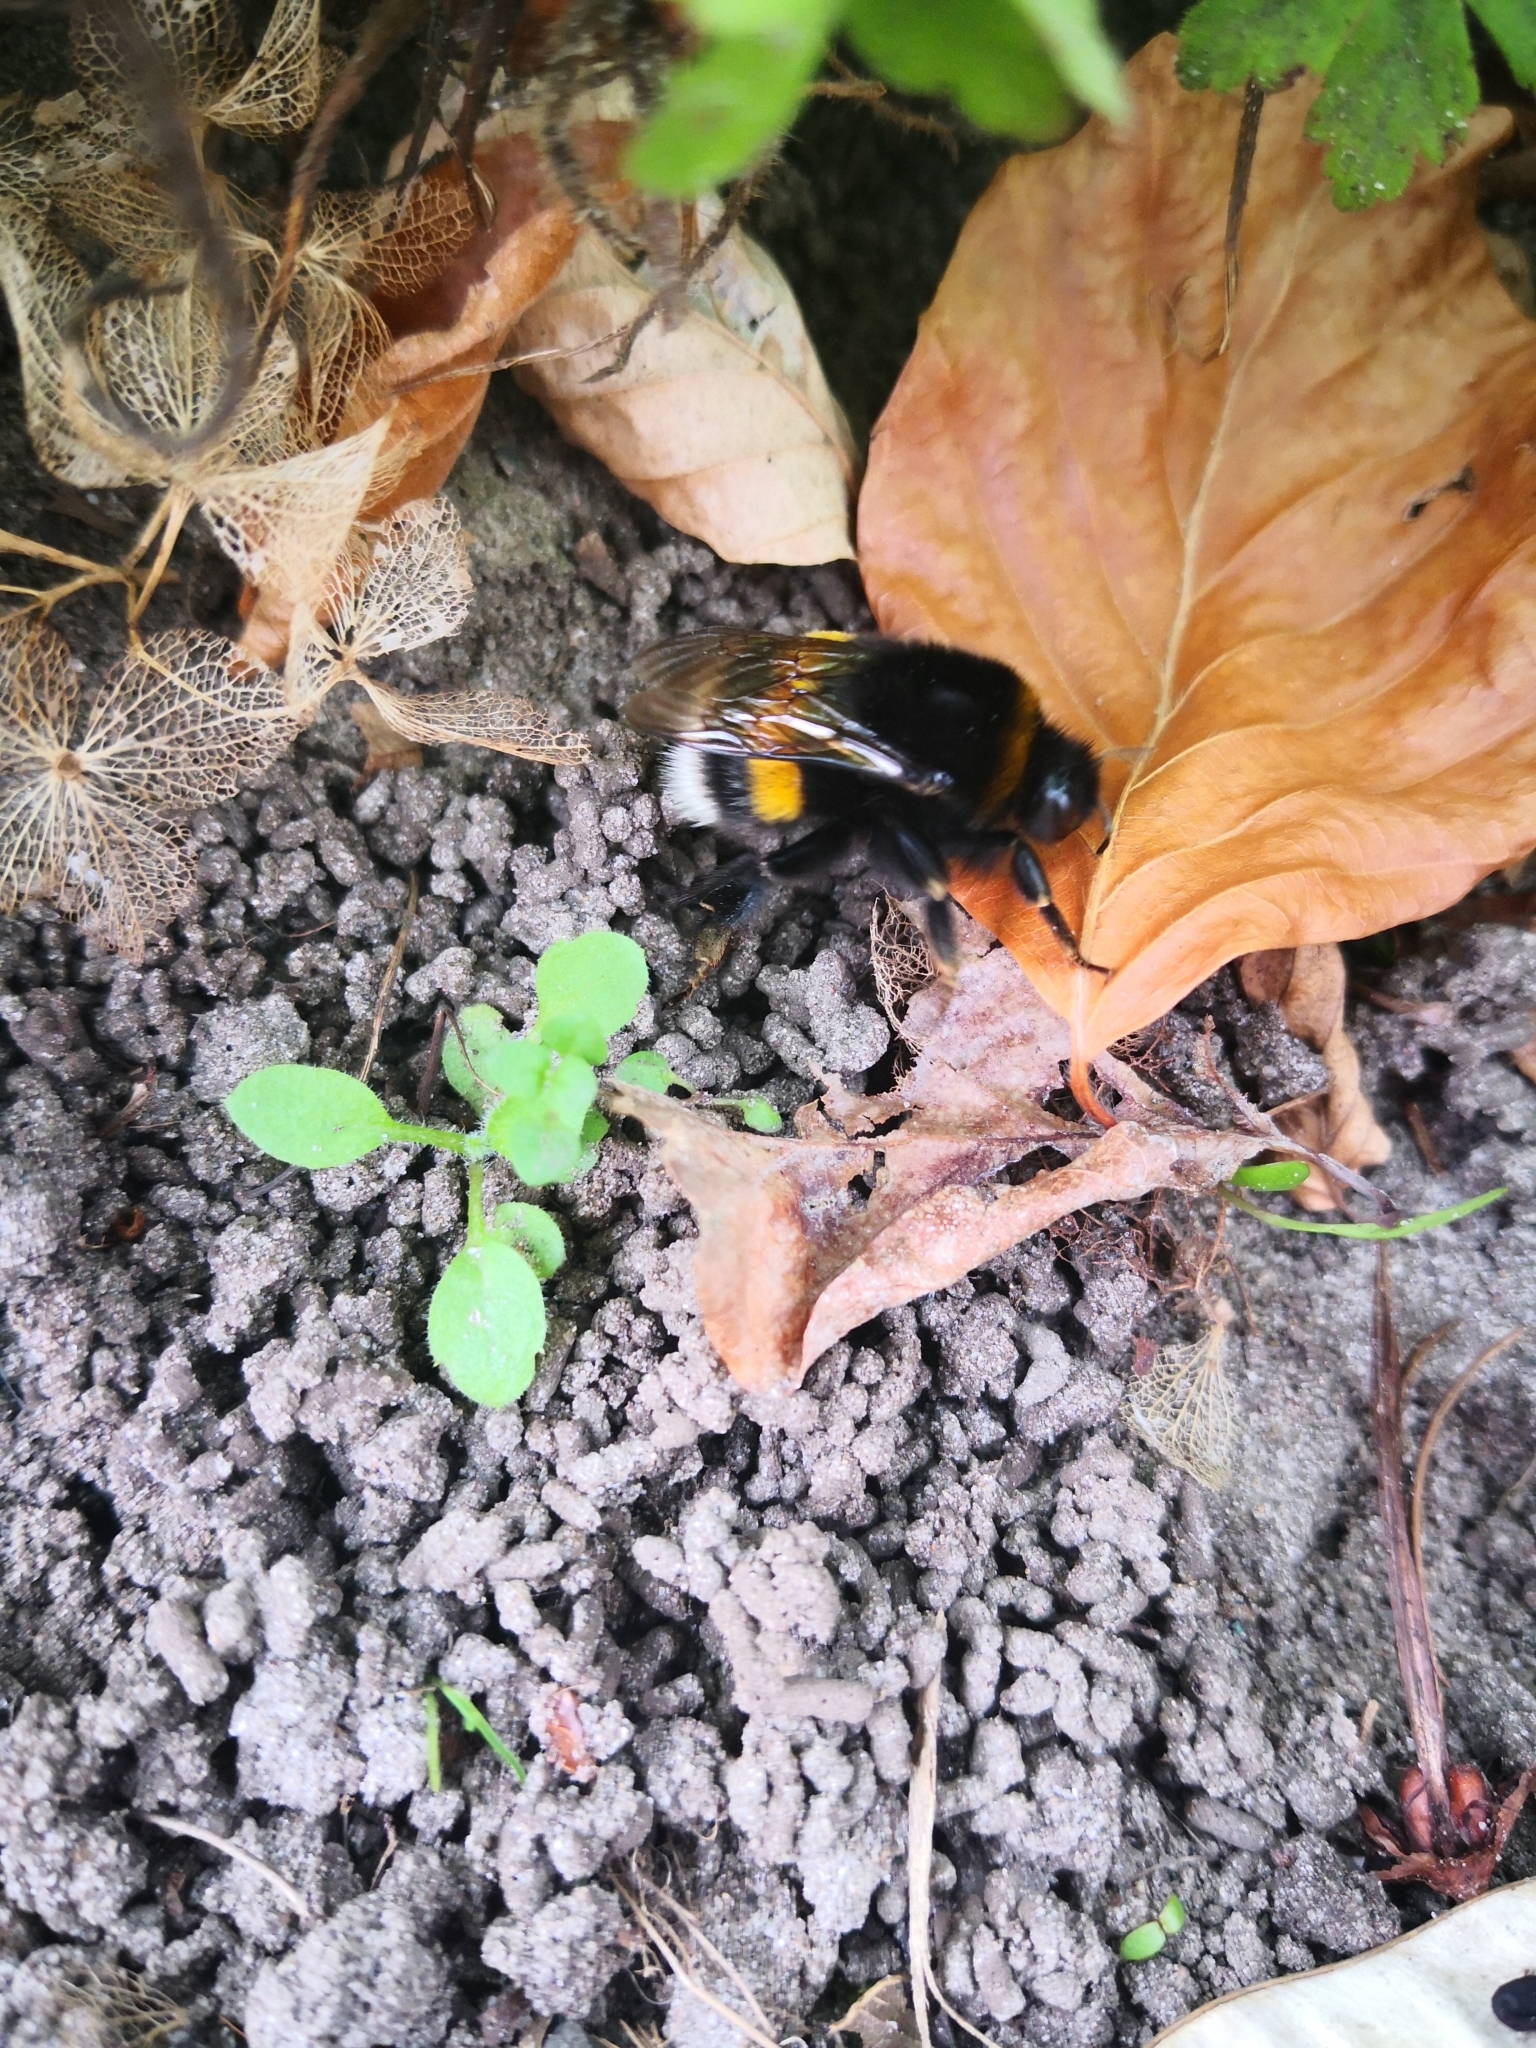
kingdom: Animalia
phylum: Arthropoda
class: Insecta
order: Hymenoptera
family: Apidae
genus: Bombus
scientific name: Bombus terrestris
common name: Buff-tailed bumblebee
